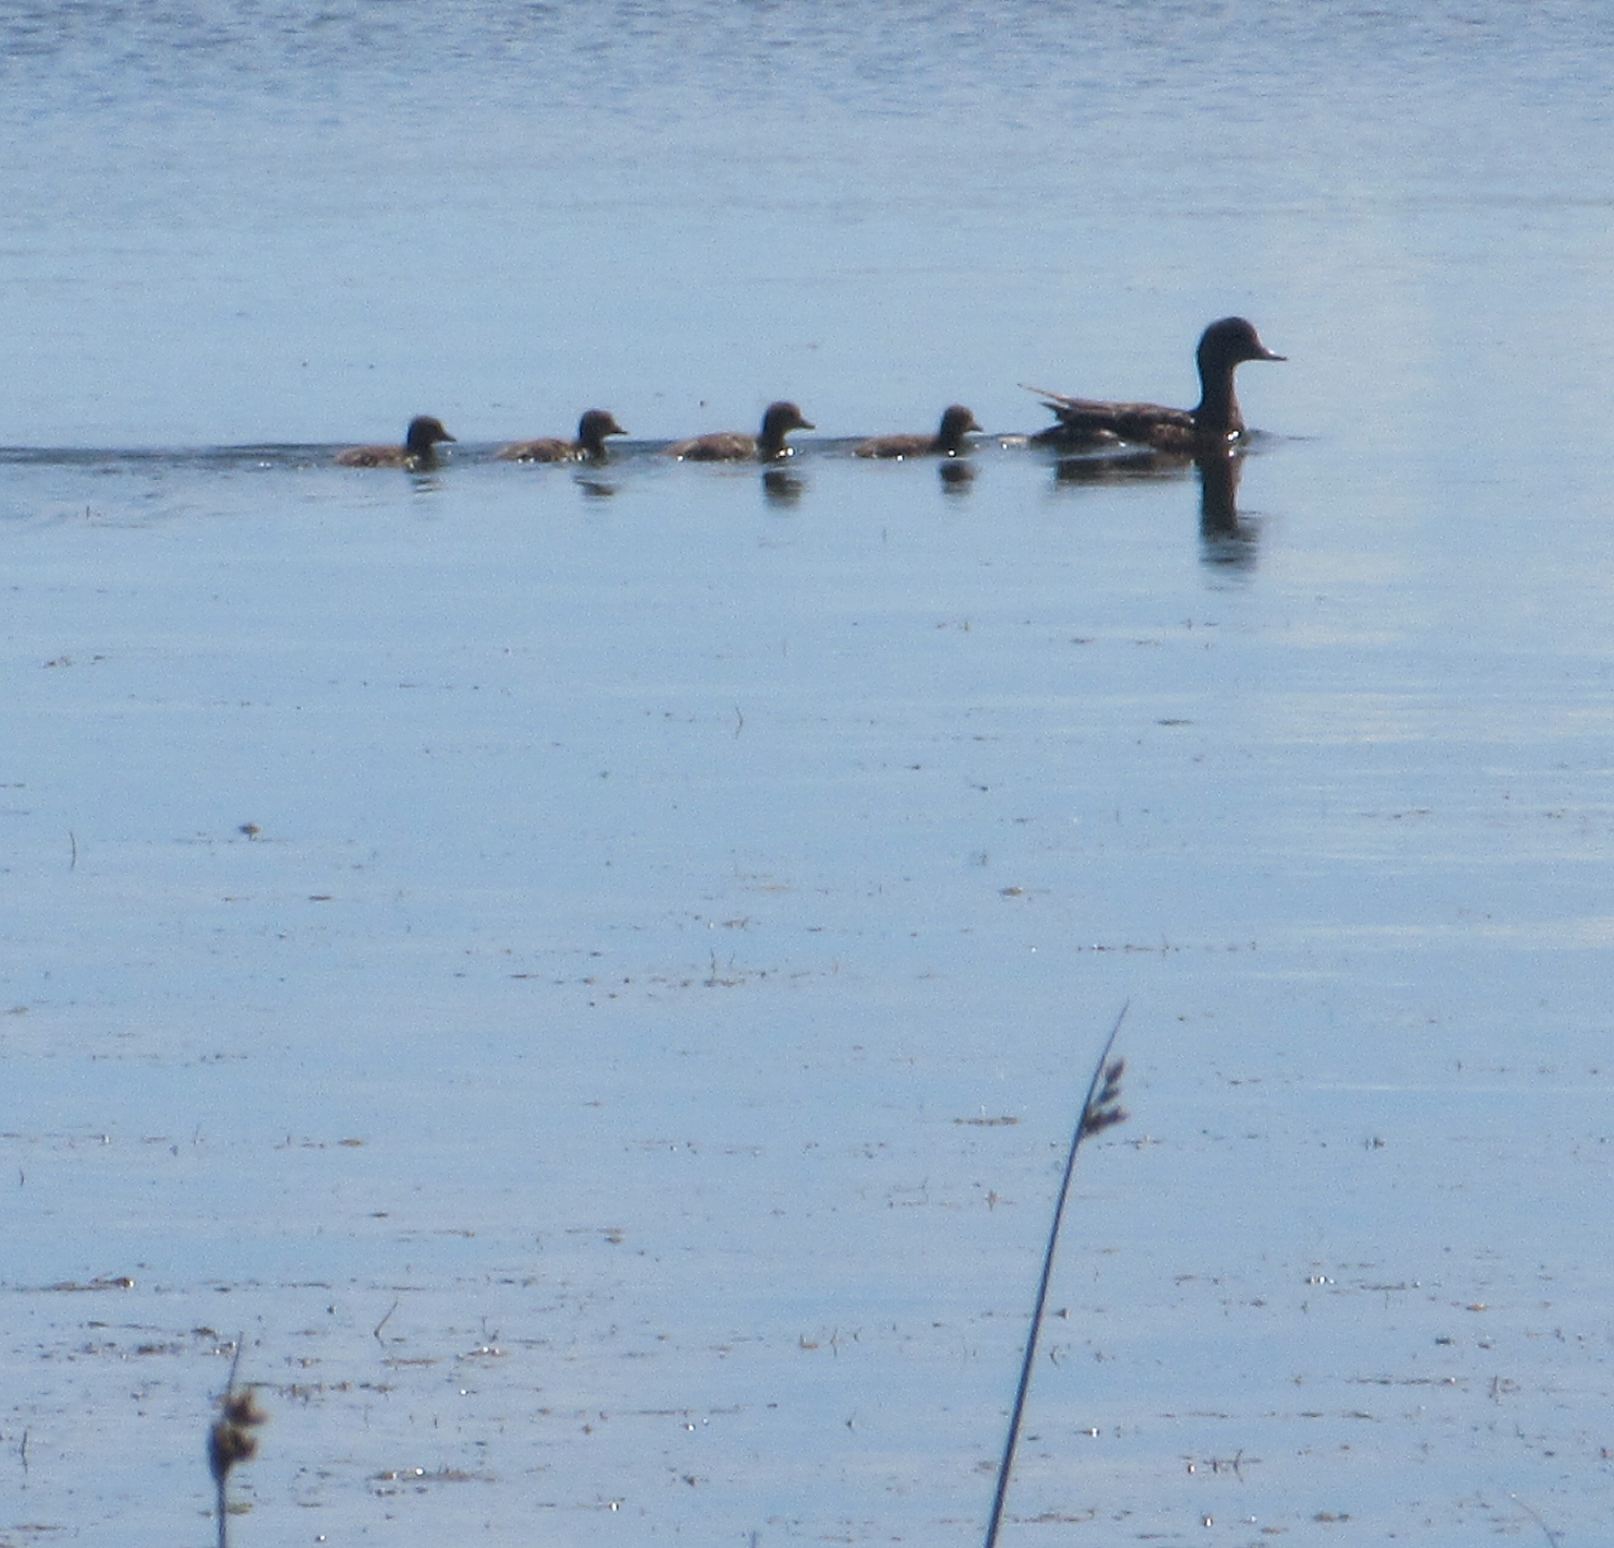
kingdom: Animalia
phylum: Chordata
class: Aves
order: Anseriformes
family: Anatidae
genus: Mareca
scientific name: Mareca strepera
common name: Gadwall
